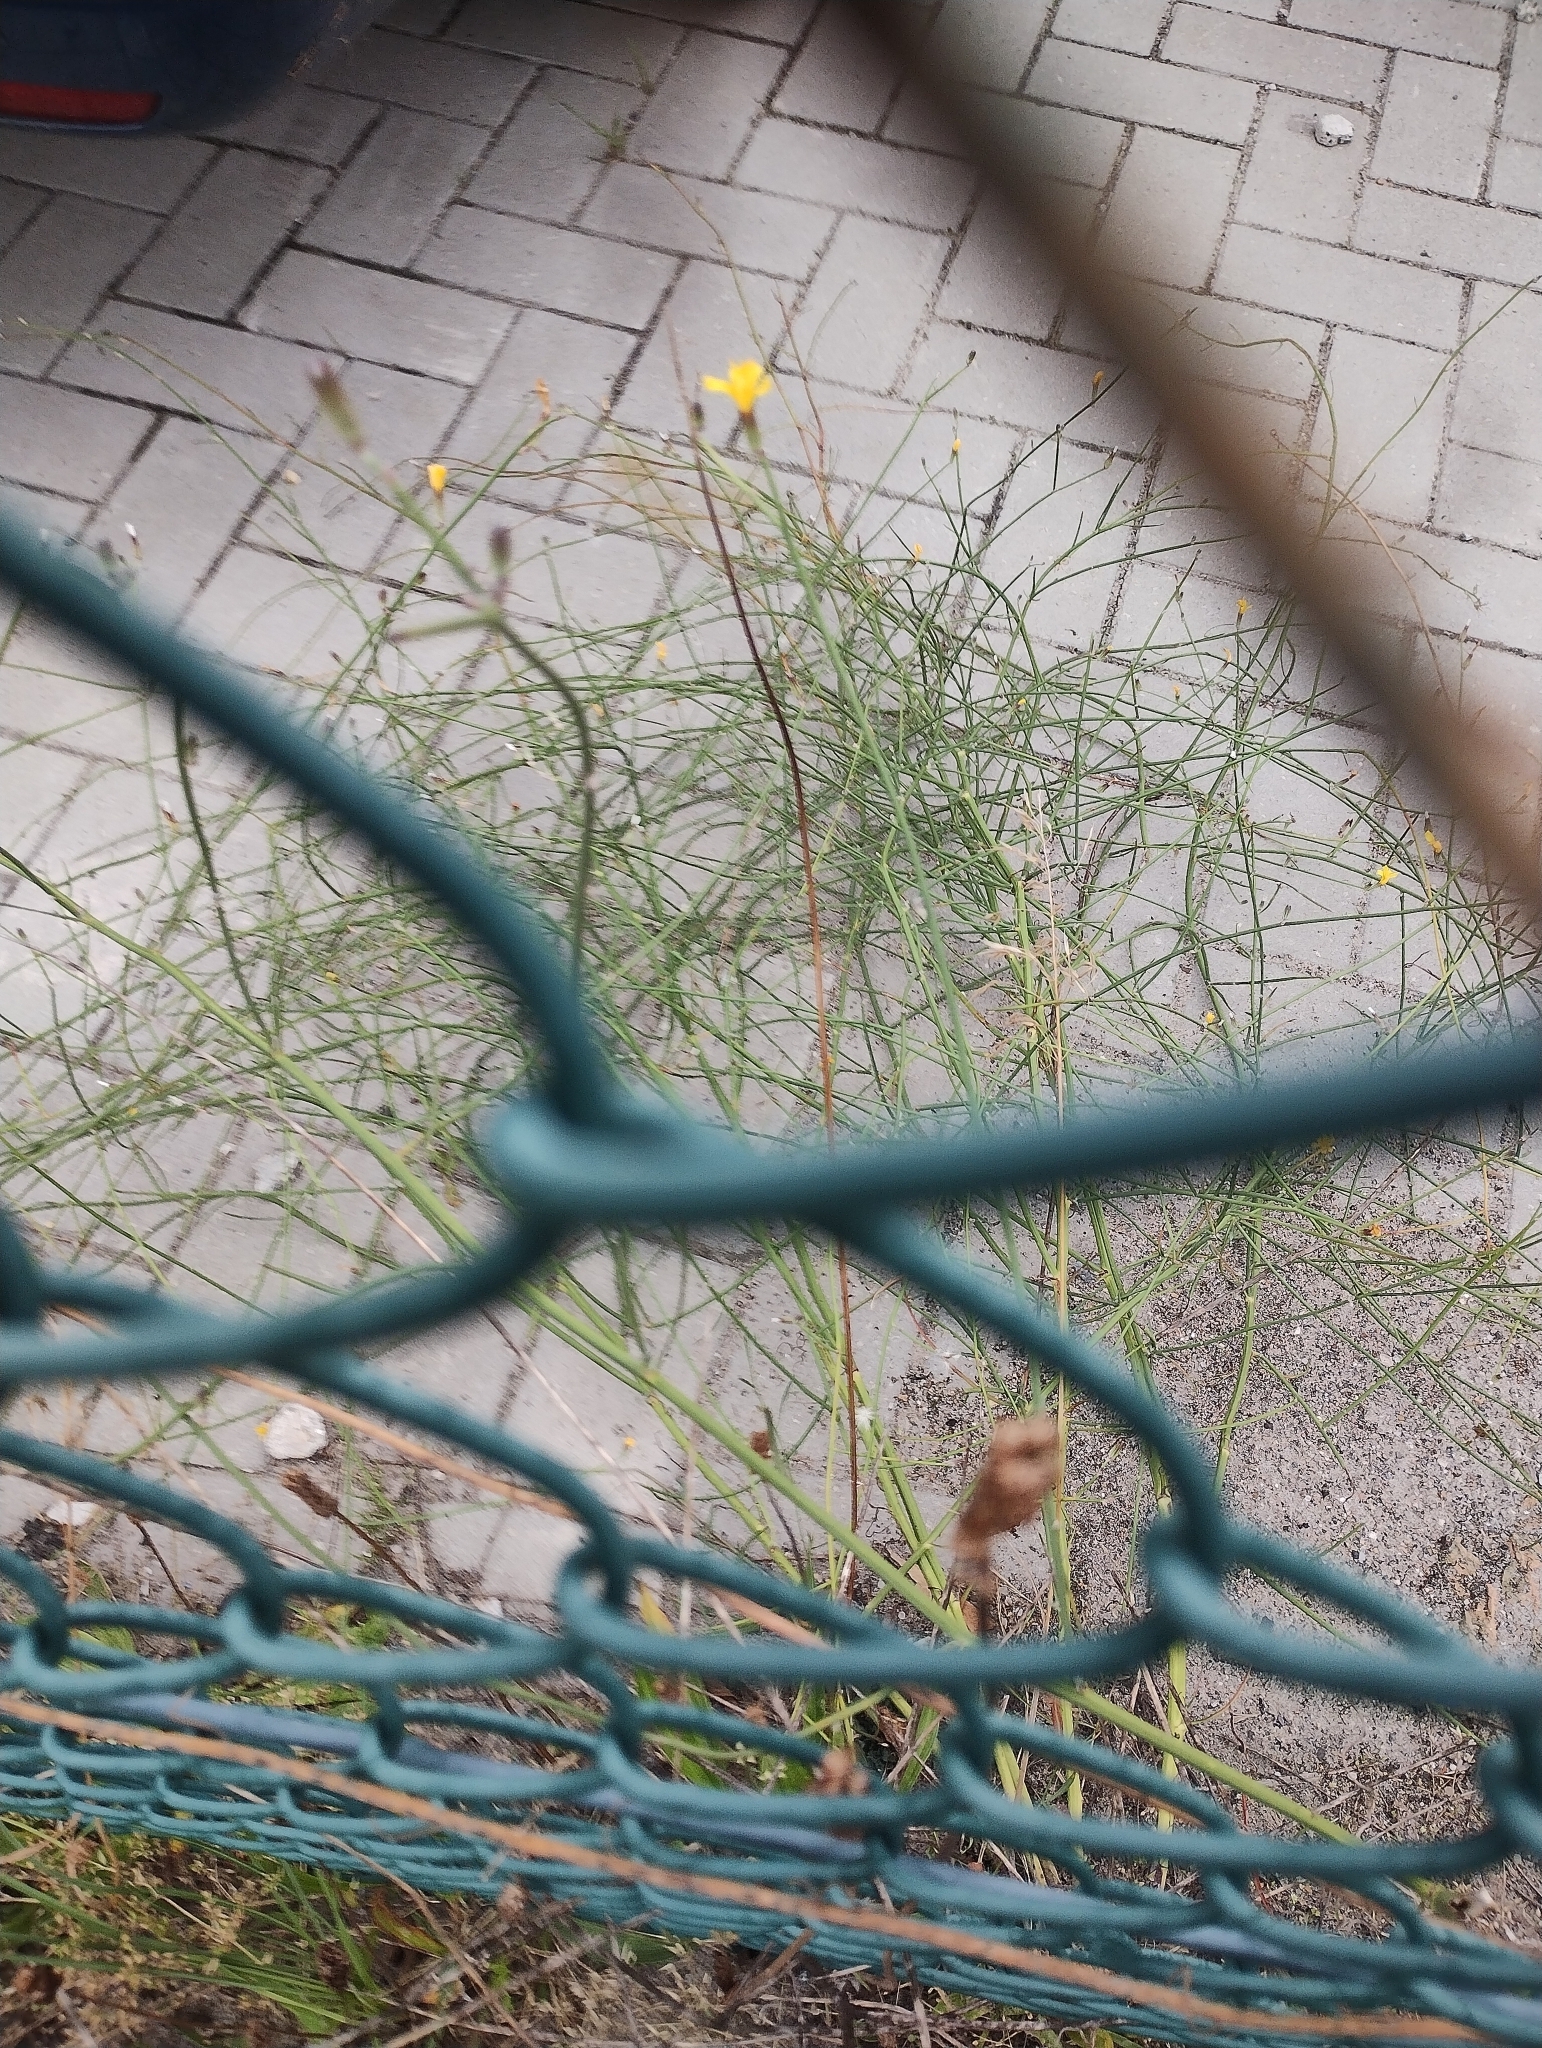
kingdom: Plantae
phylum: Tracheophyta
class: Magnoliopsida
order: Asterales
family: Asteraceae
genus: Chondrilla
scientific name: Chondrilla juncea
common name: Skeleton weed
